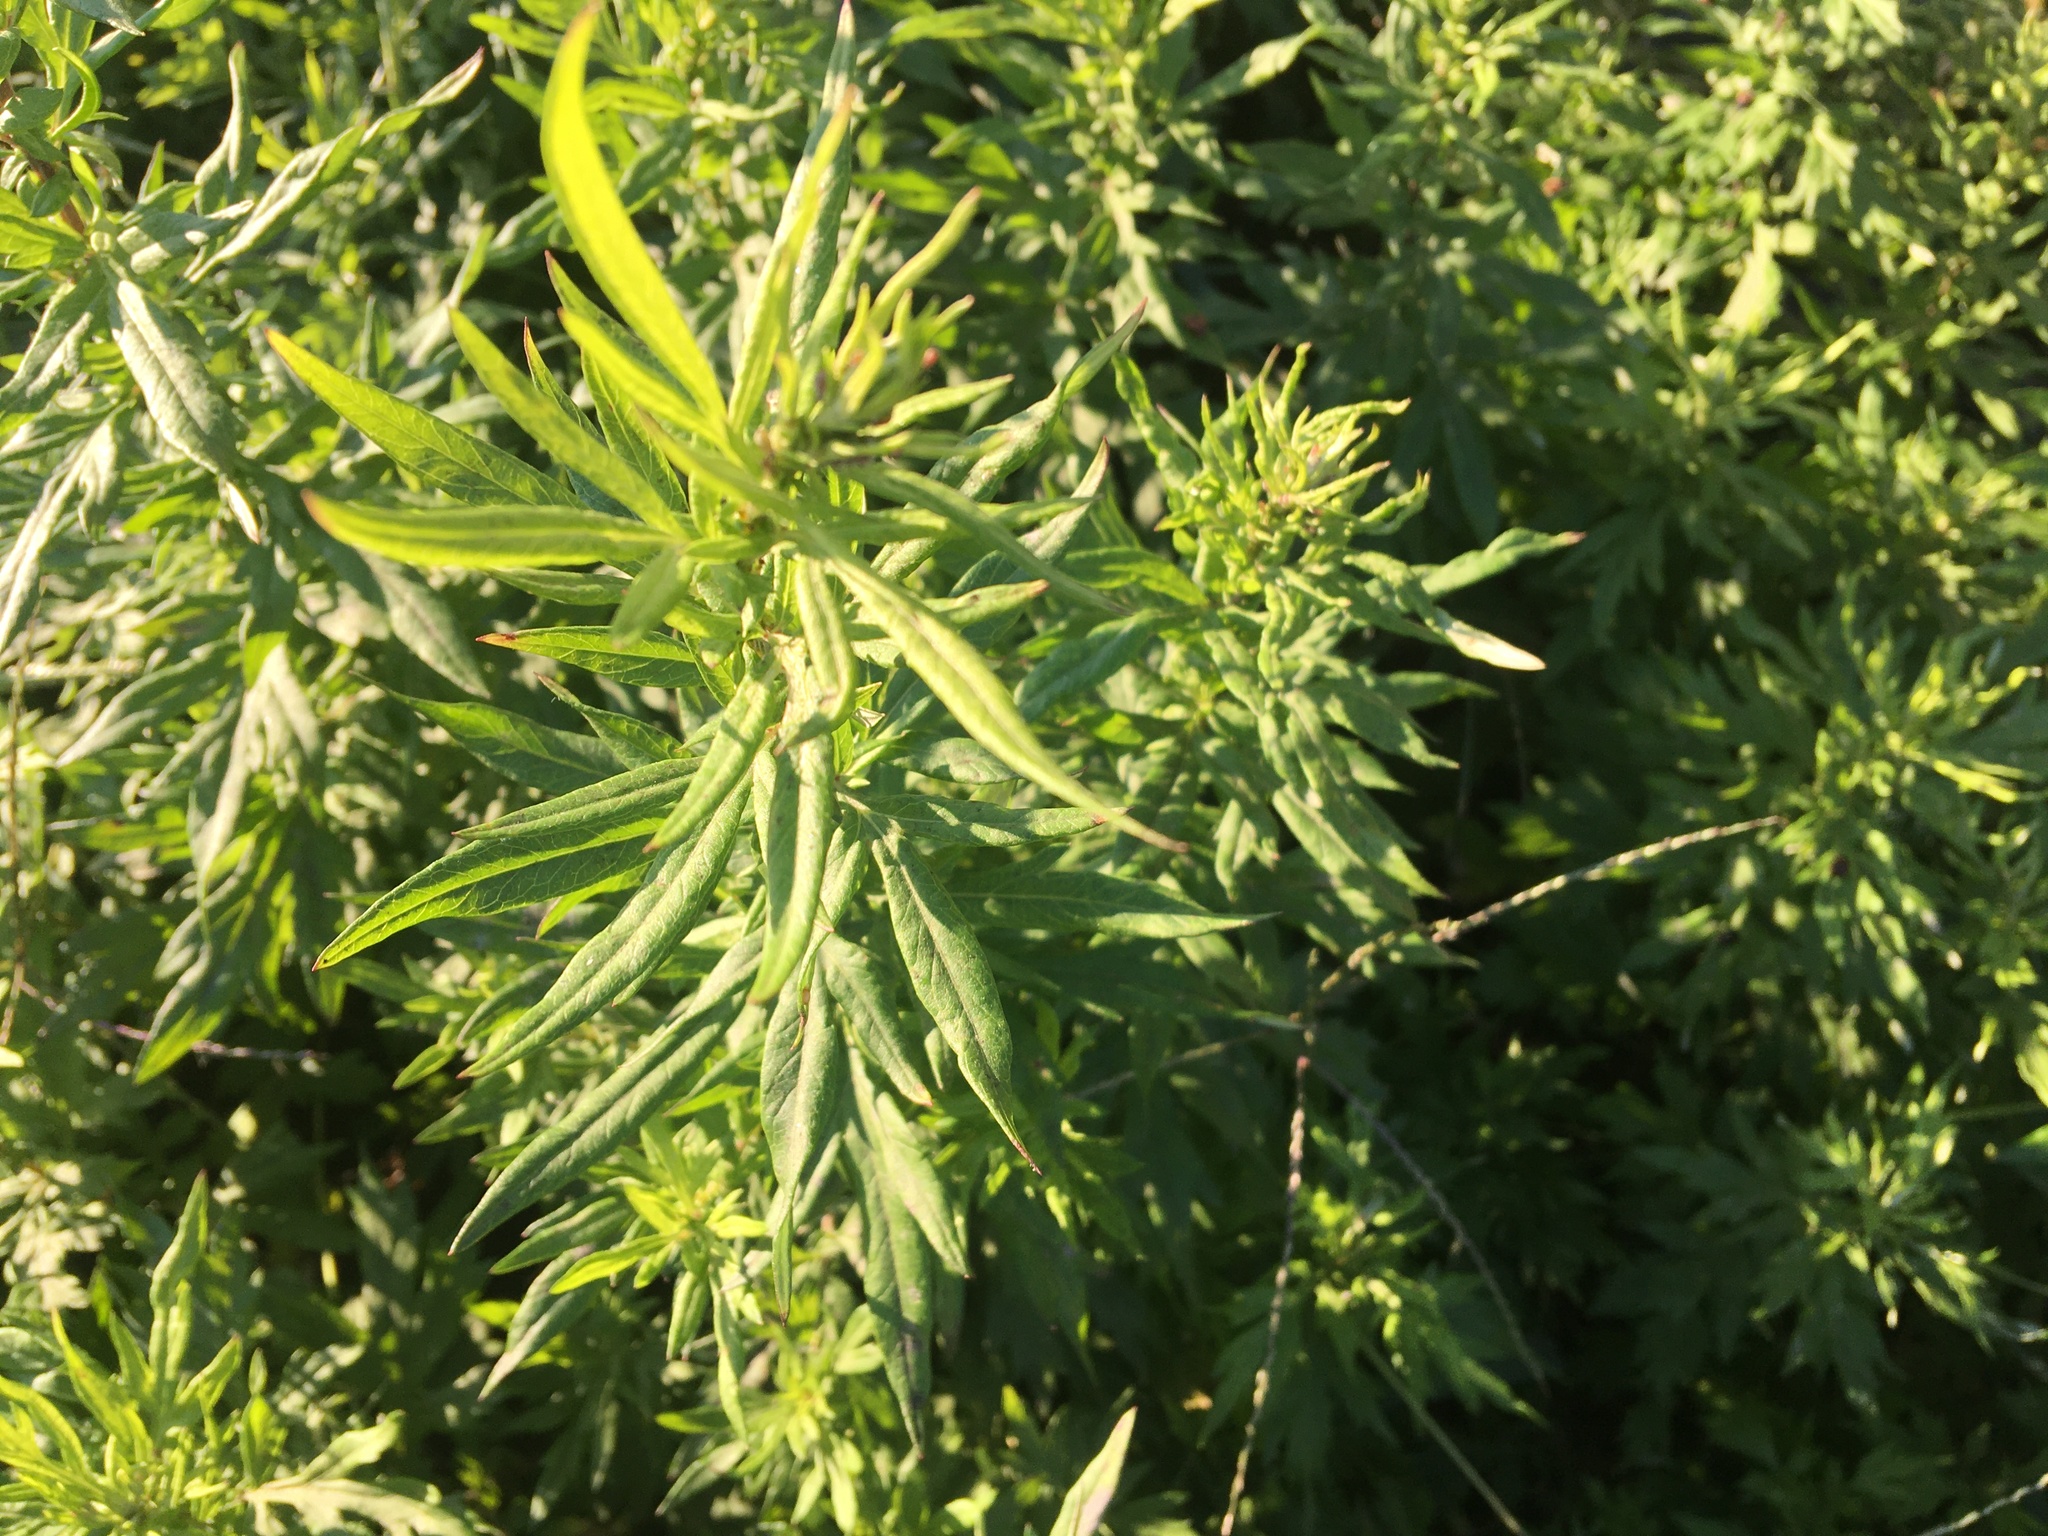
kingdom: Plantae
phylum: Tracheophyta
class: Magnoliopsida
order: Asterales
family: Asteraceae
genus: Artemisia
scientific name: Artemisia vulgaris
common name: Mugwort
